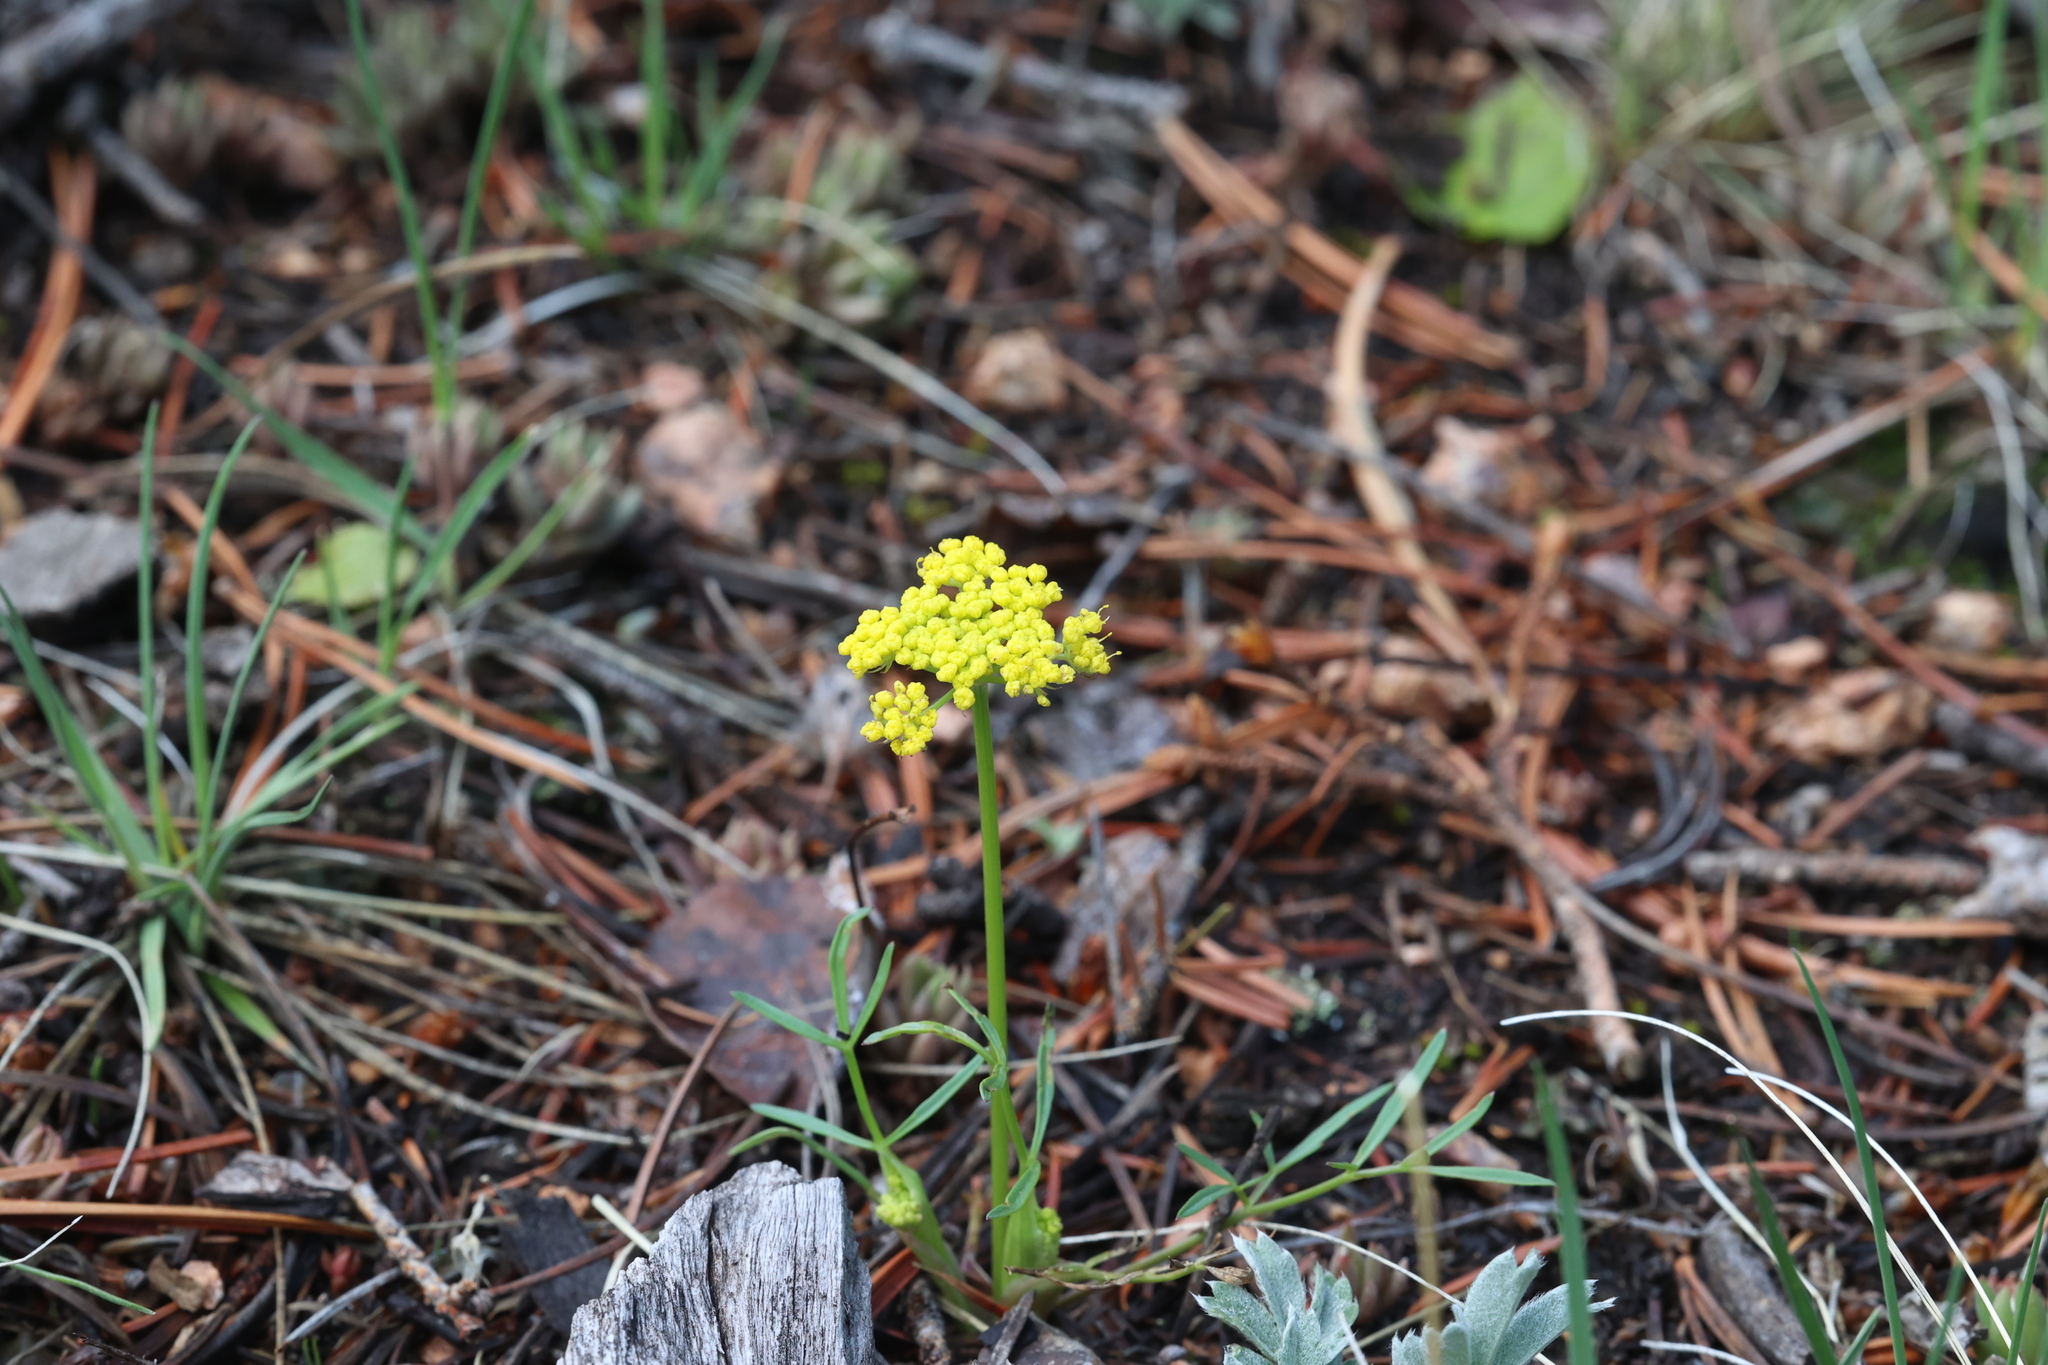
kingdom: Plantae
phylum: Tracheophyta
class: Magnoliopsida
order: Apiales
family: Apiaceae
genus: Cymopterus
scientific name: Cymopterus lemmonii
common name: Lemmon's spring-parsley
